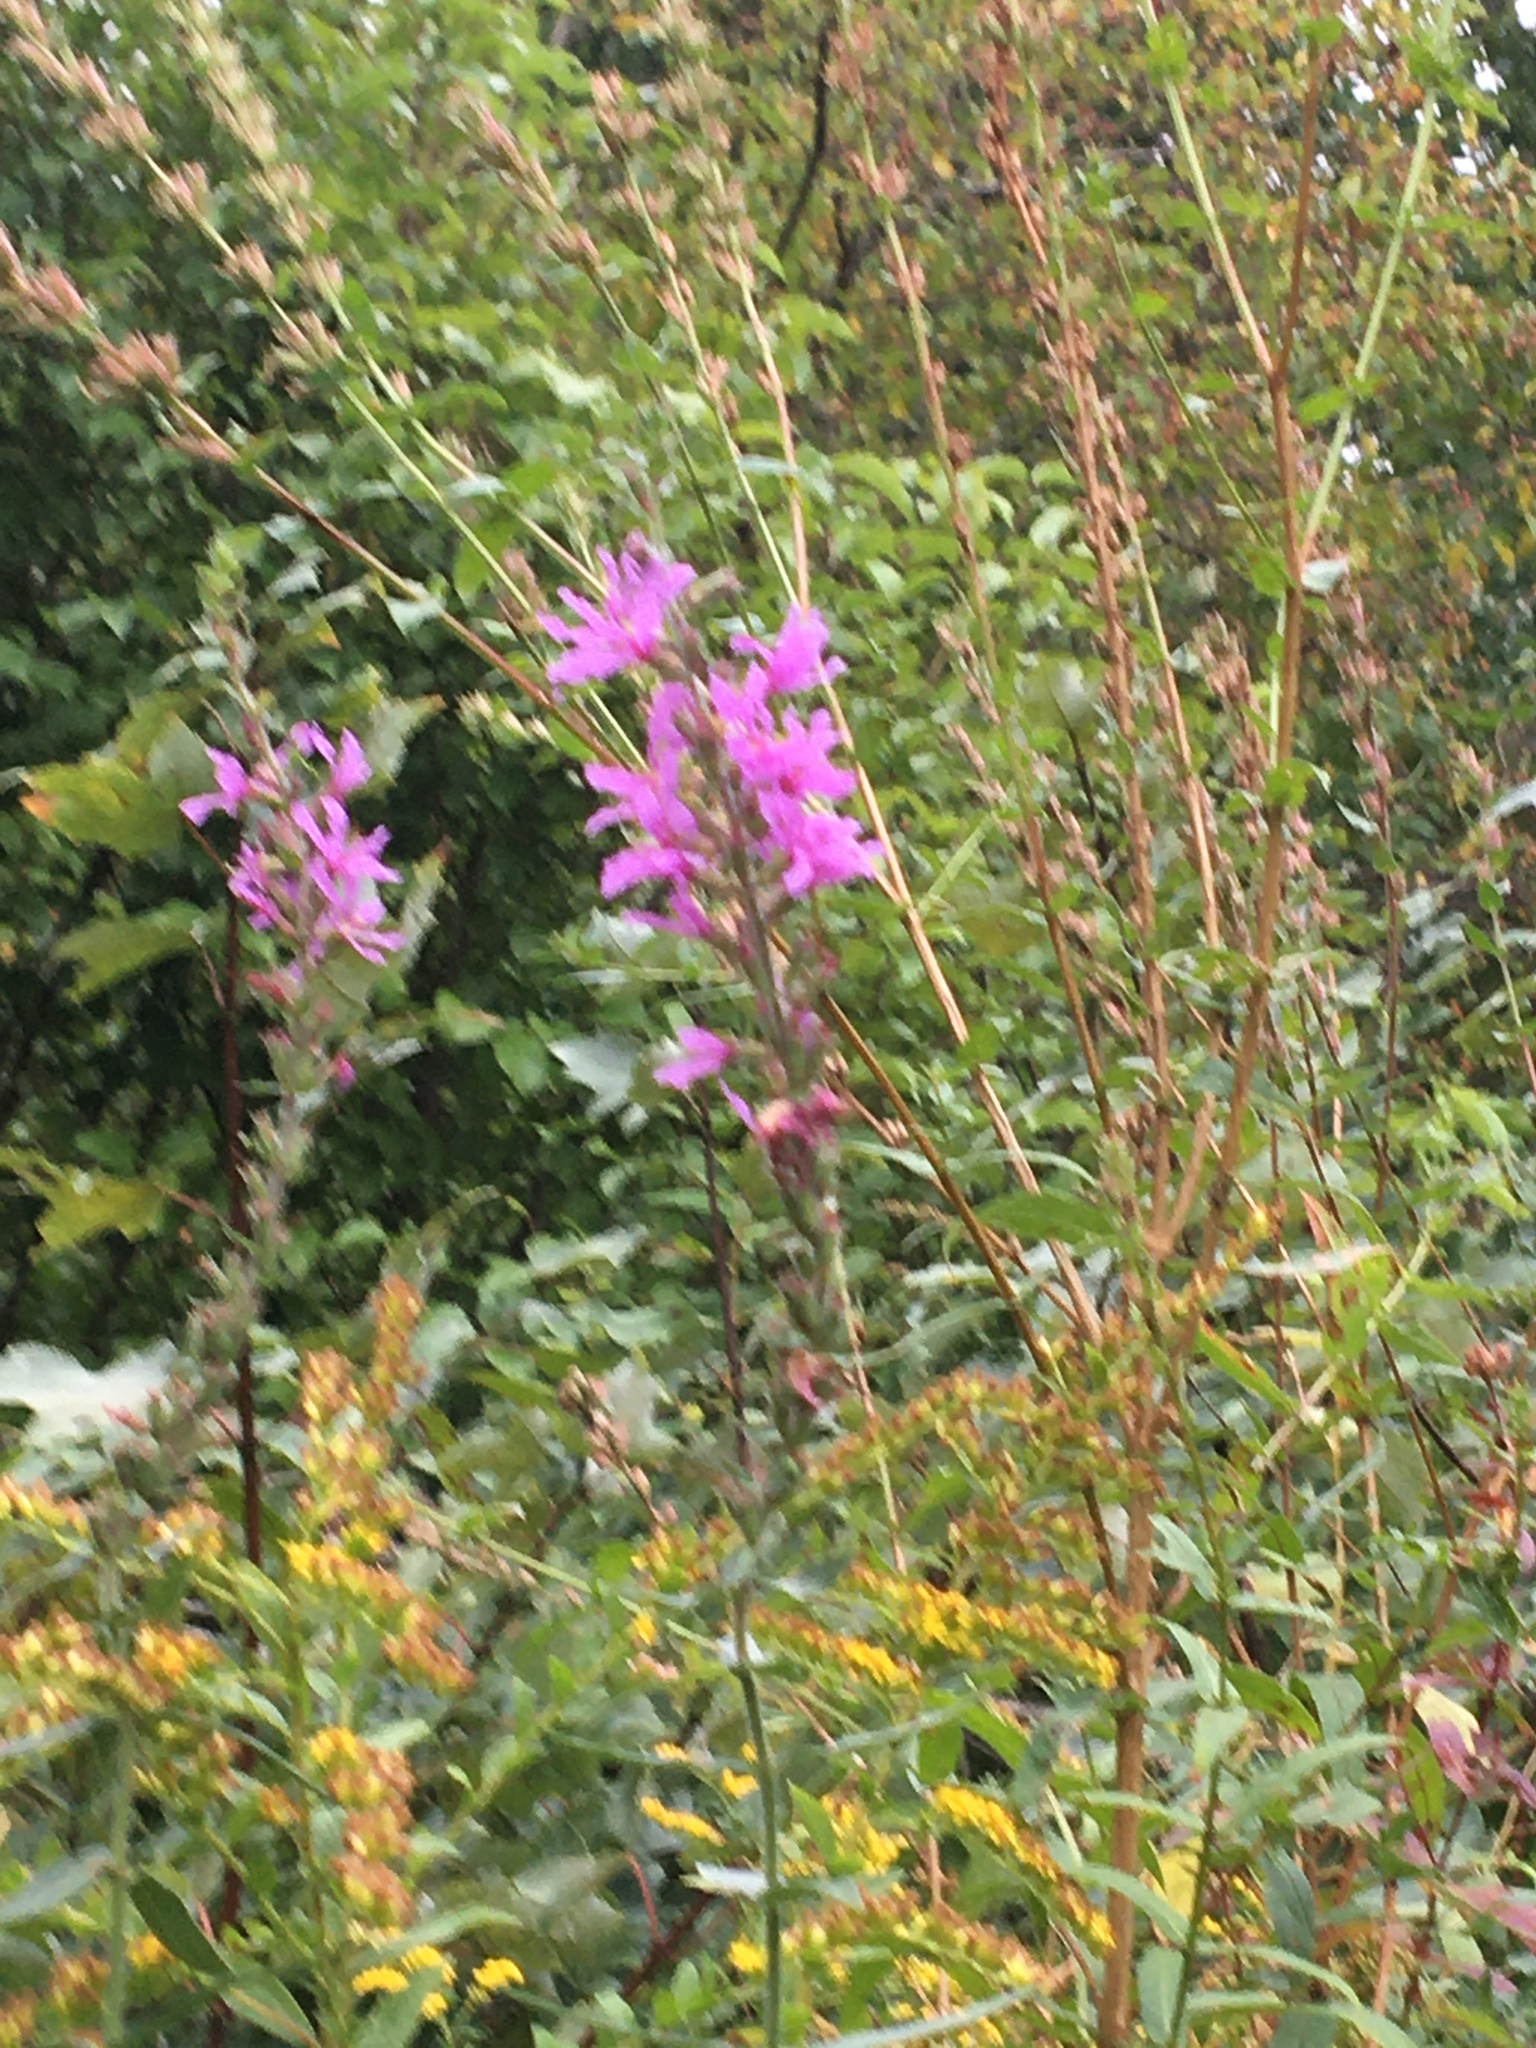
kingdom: Plantae
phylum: Tracheophyta
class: Magnoliopsida
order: Myrtales
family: Lythraceae
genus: Lythrum
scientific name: Lythrum salicaria
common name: Purple loosestrife
